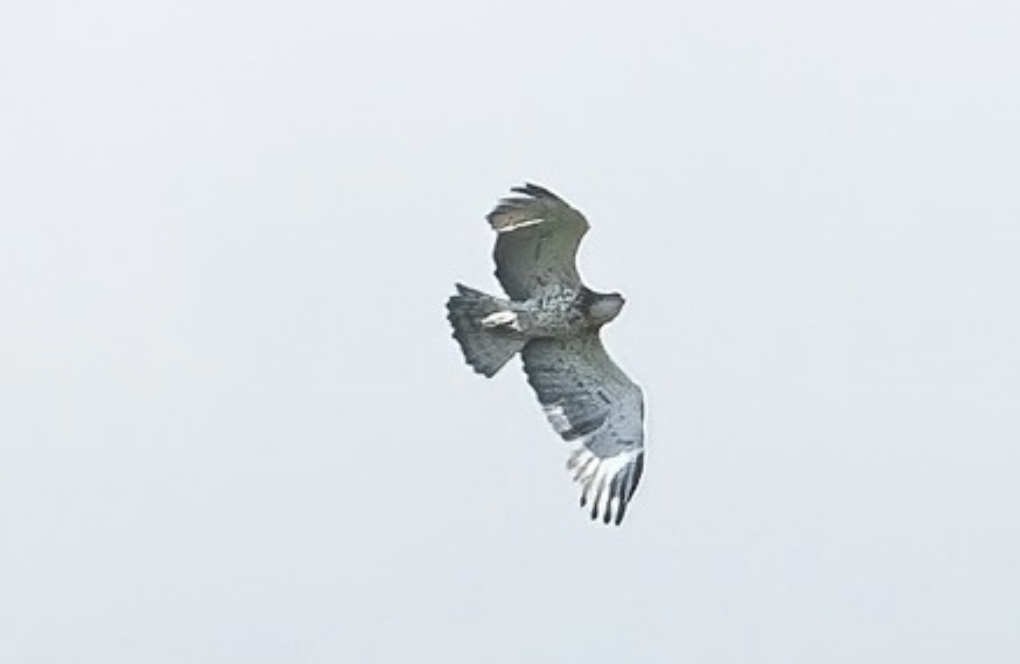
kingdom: Animalia
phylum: Chordata
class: Aves
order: Accipitriformes
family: Accipitridae
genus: Circaetus
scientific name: Circaetus gallicus
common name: Short-toed snake eagle
